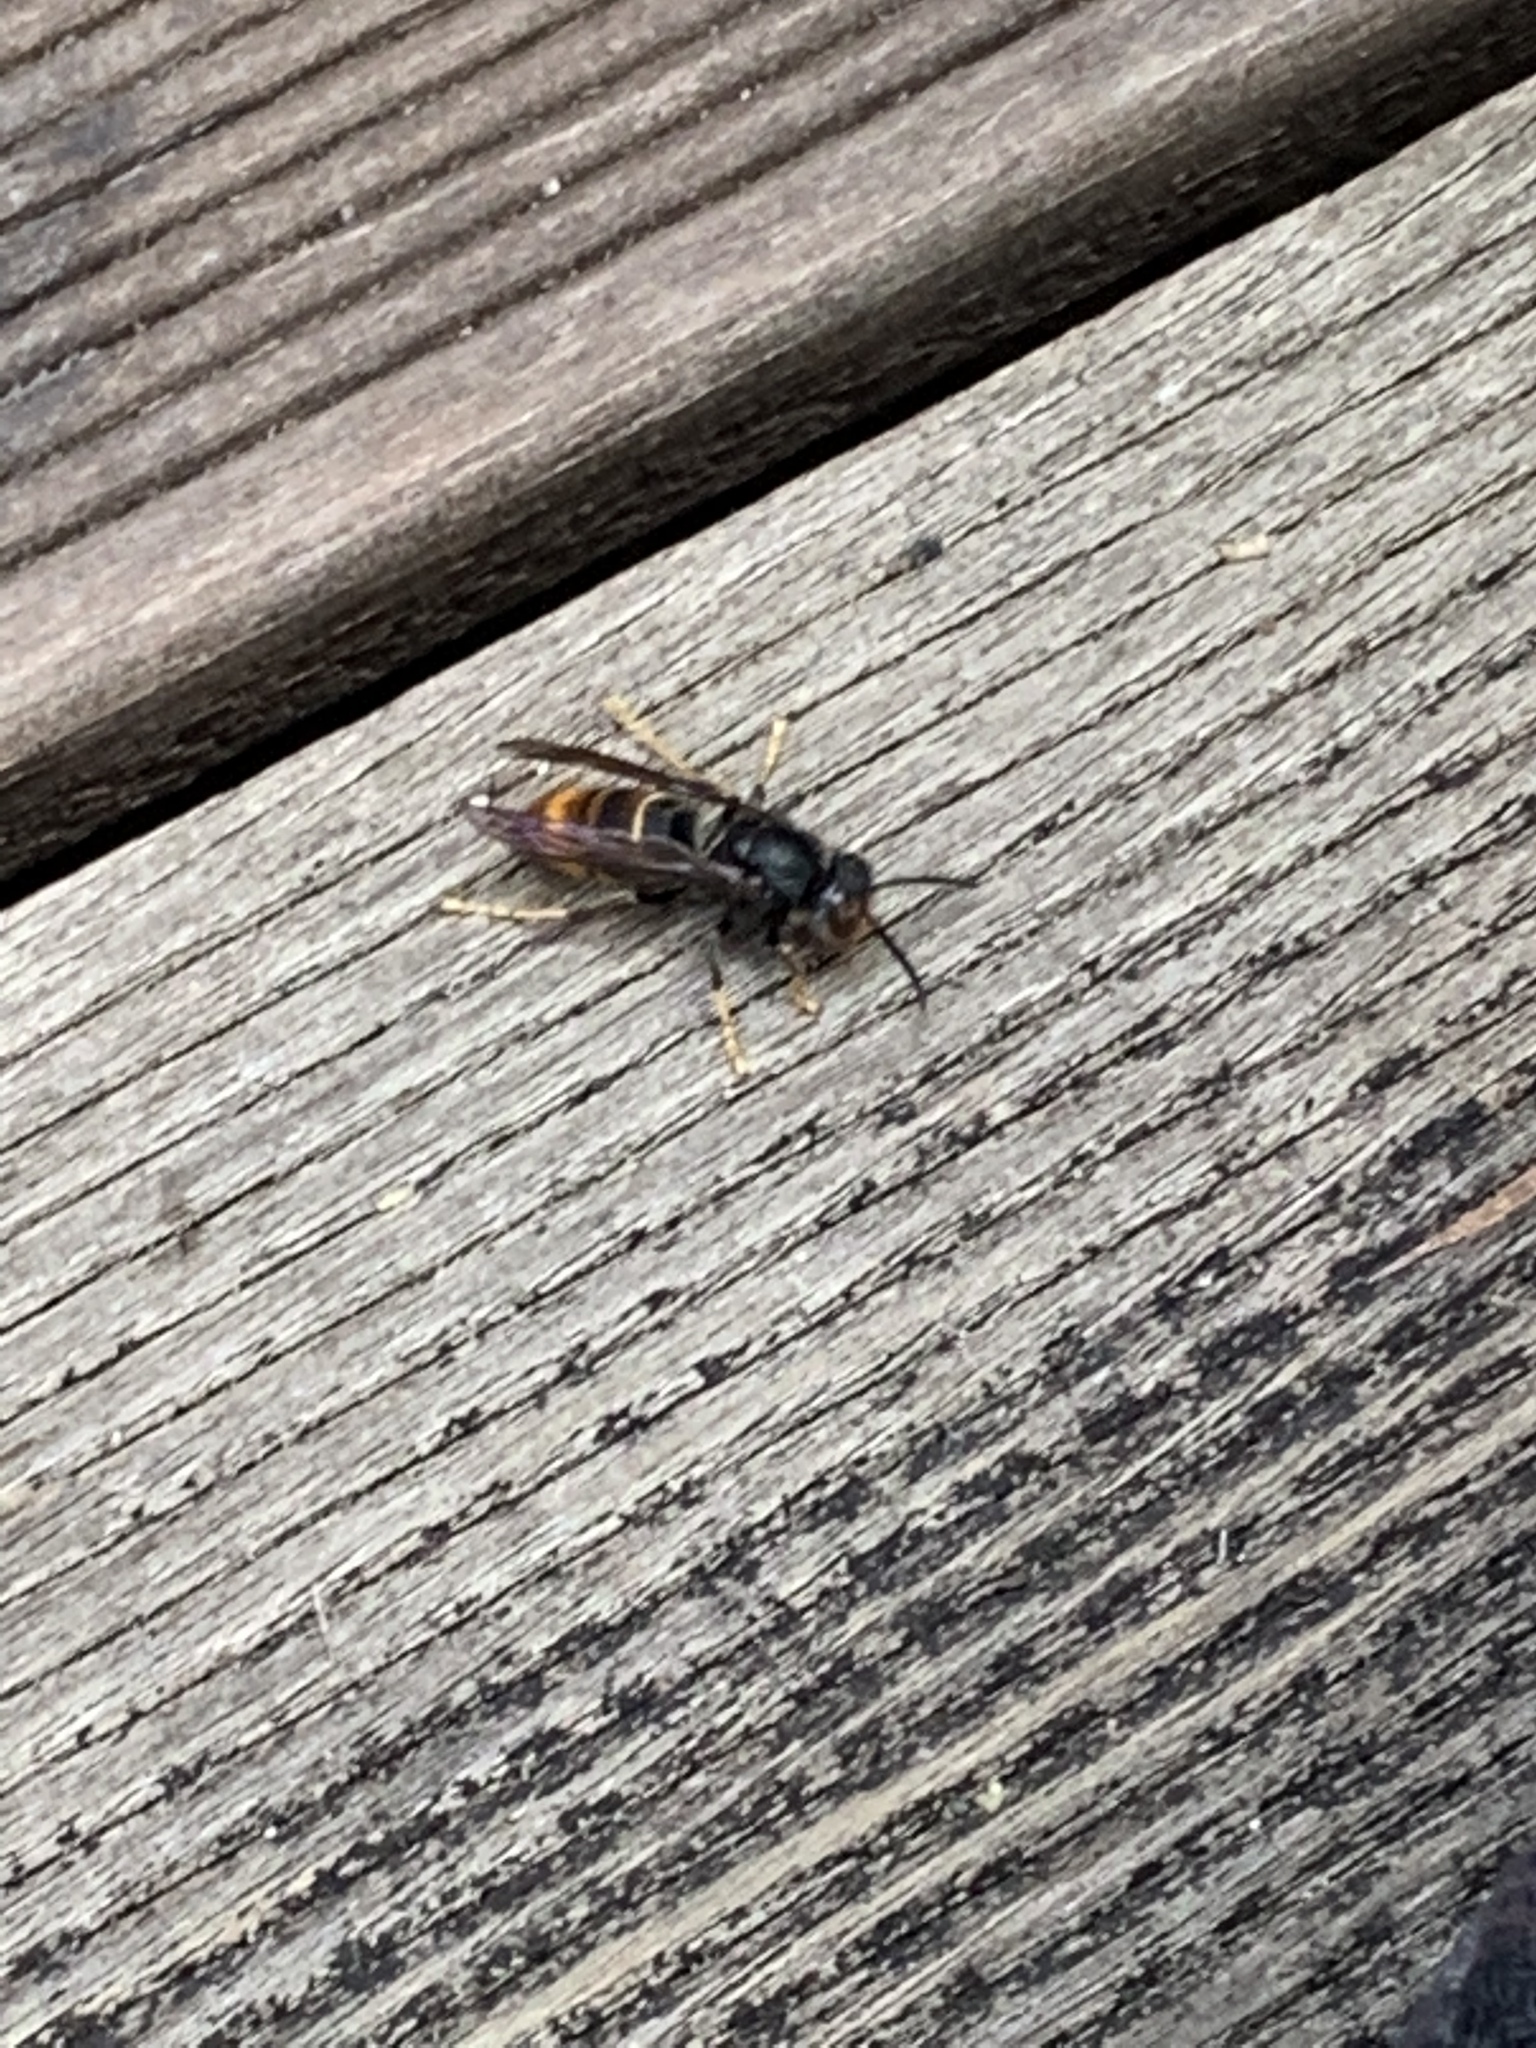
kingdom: Animalia
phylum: Arthropoda
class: Insecta
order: Hymenoptera
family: Vespidae
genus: Vespa
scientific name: Vespa velutina
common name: Asian hornet
